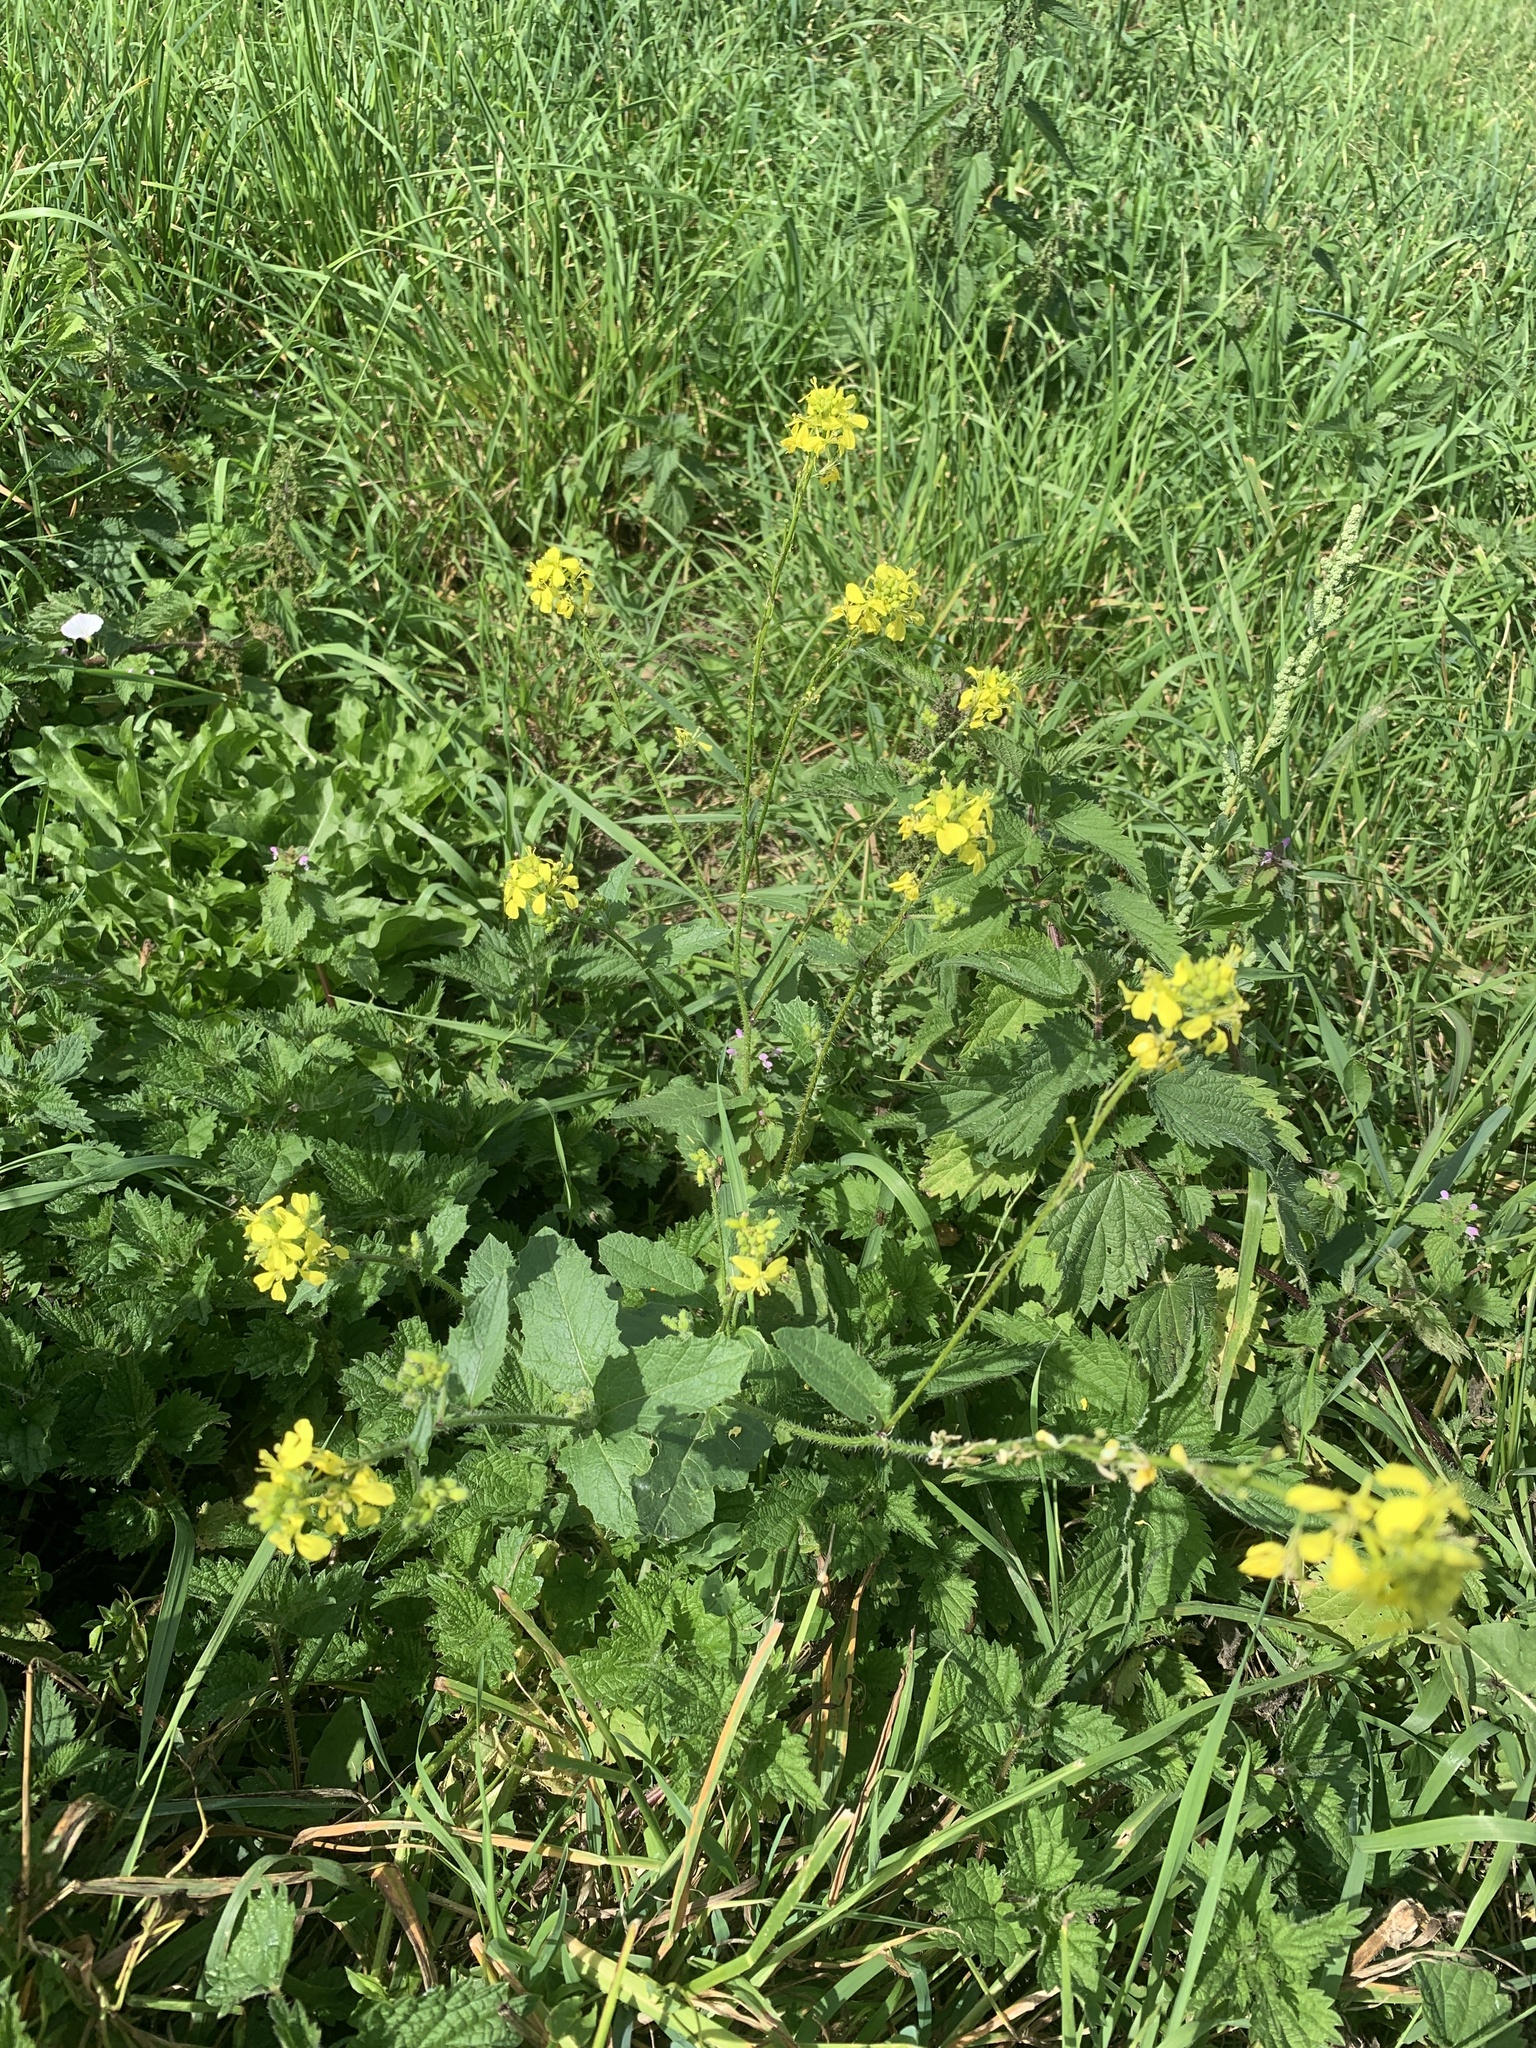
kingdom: Plantae
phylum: Tracheophyta
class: Magnoliopsida
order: Brassicales
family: Brassicaceae
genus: Sinapis
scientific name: Sinapis arvensis
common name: Charlock
